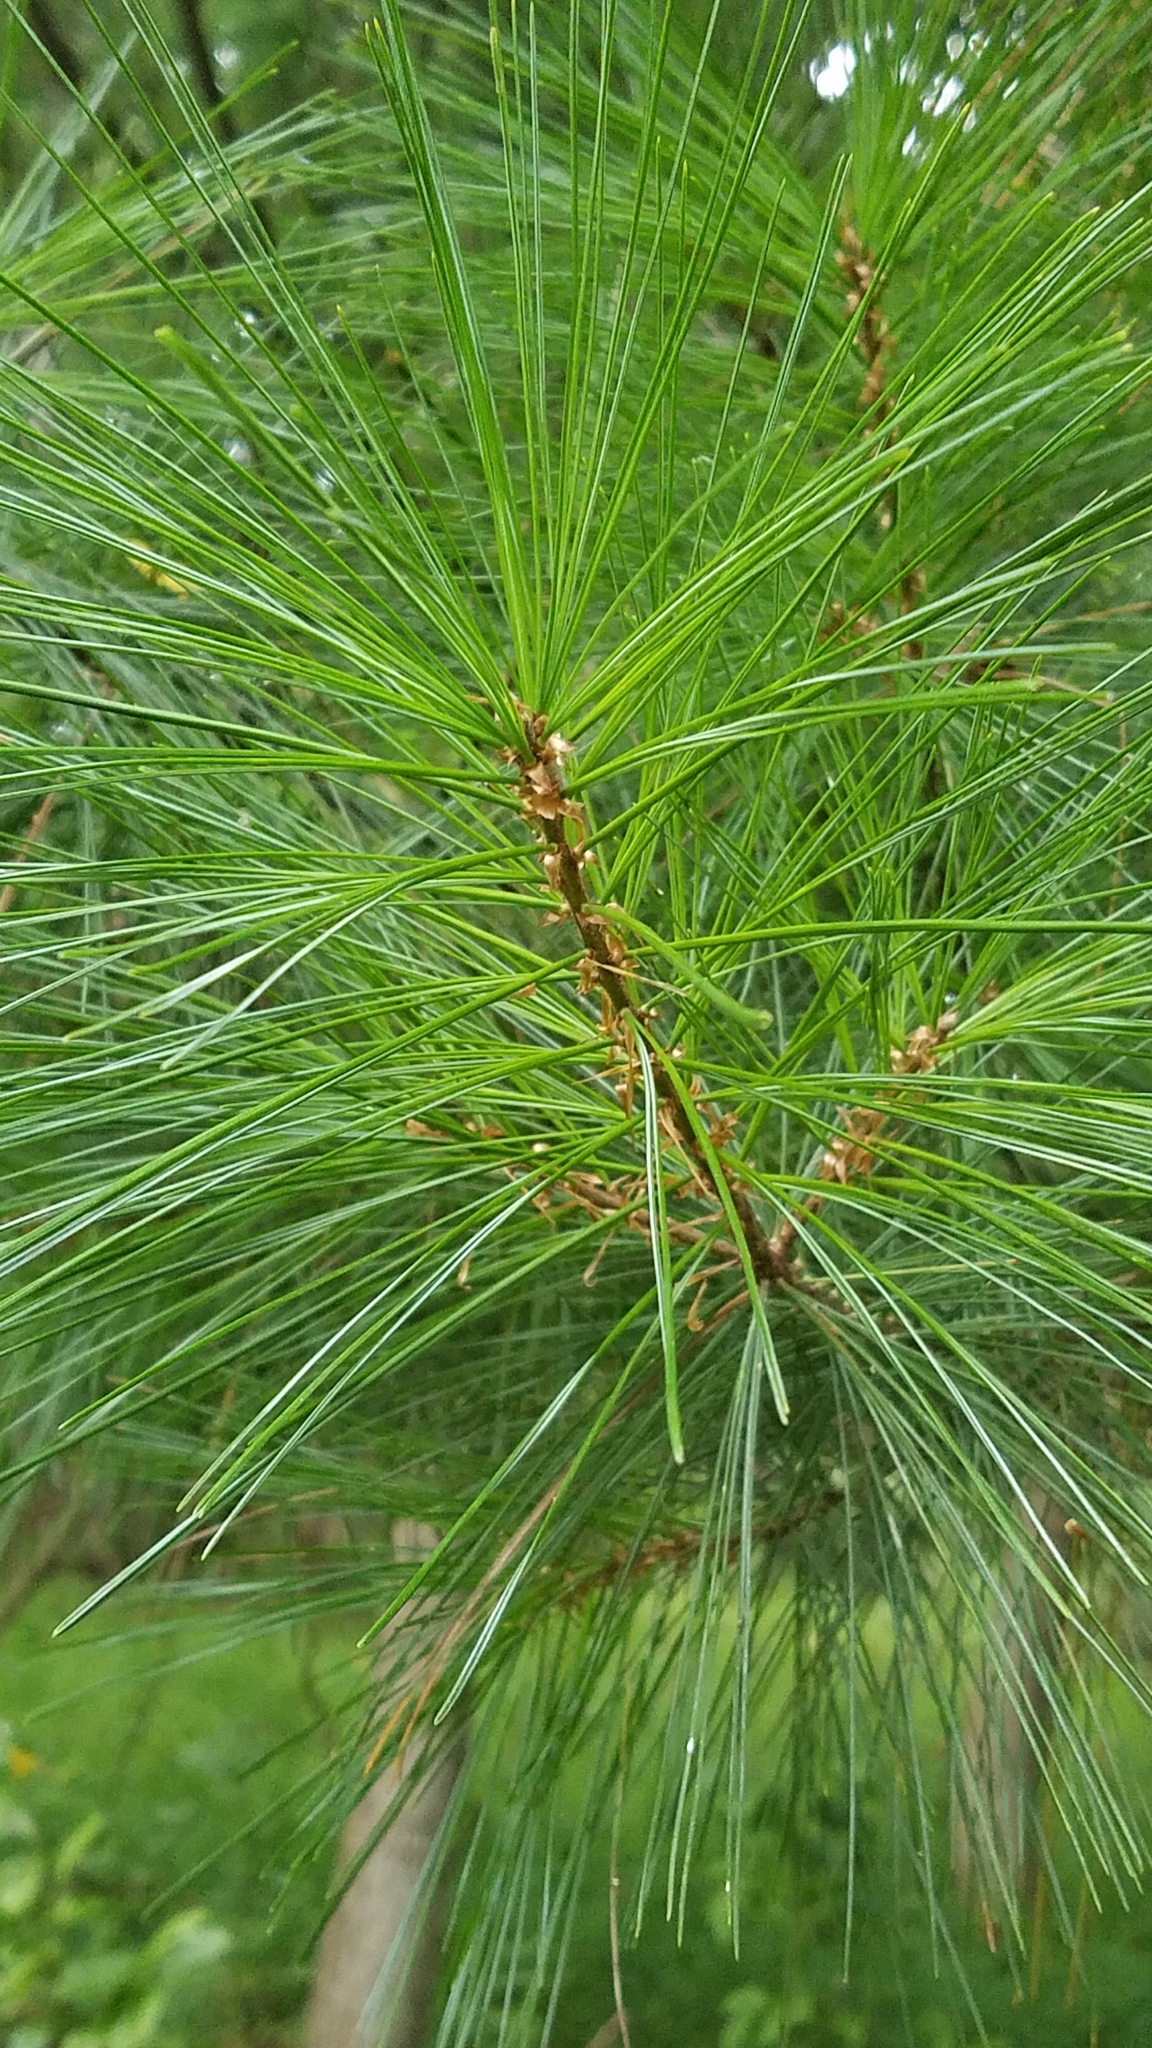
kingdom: Plantae
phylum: Tracheophyta
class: Pinopsida
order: Pinales
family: Pinaceae
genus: Pinus
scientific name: Pinus strobus
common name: Weymouth pine
